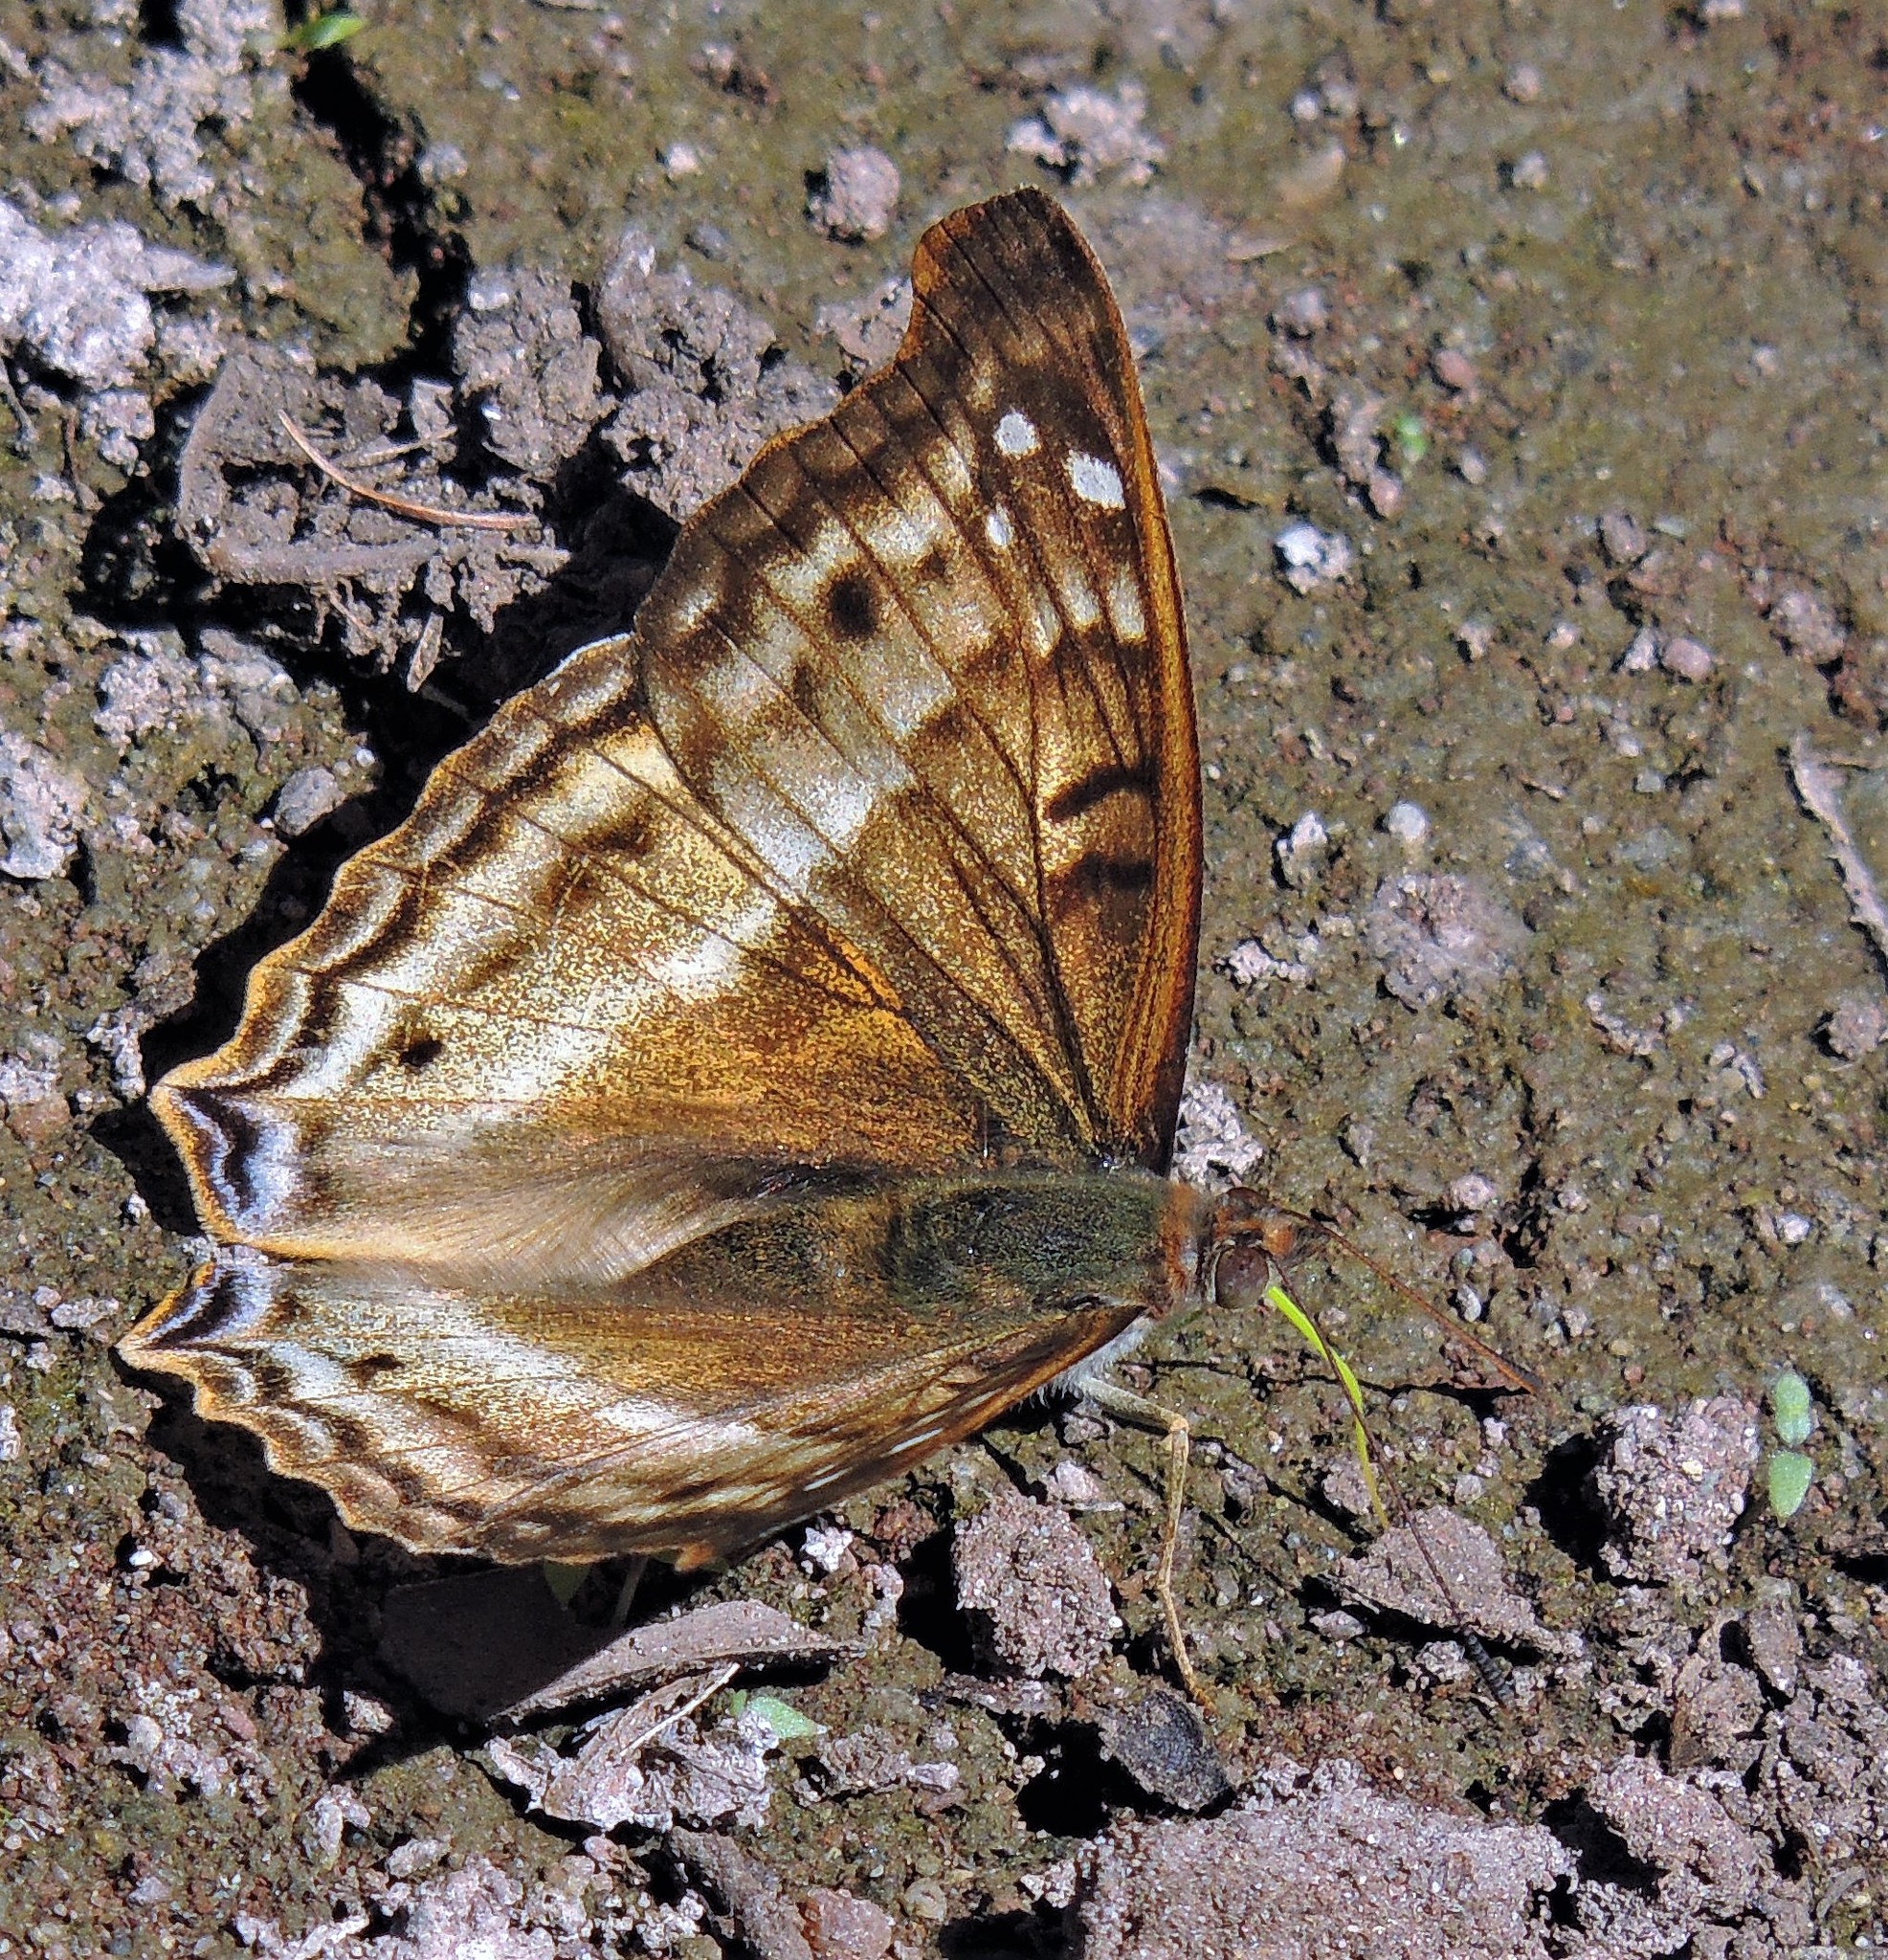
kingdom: Animalia
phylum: Arthropoda
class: Insecta
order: Lepidoptera
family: Nymphalidae
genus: Doxocopa
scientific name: Doxocopa cyane
